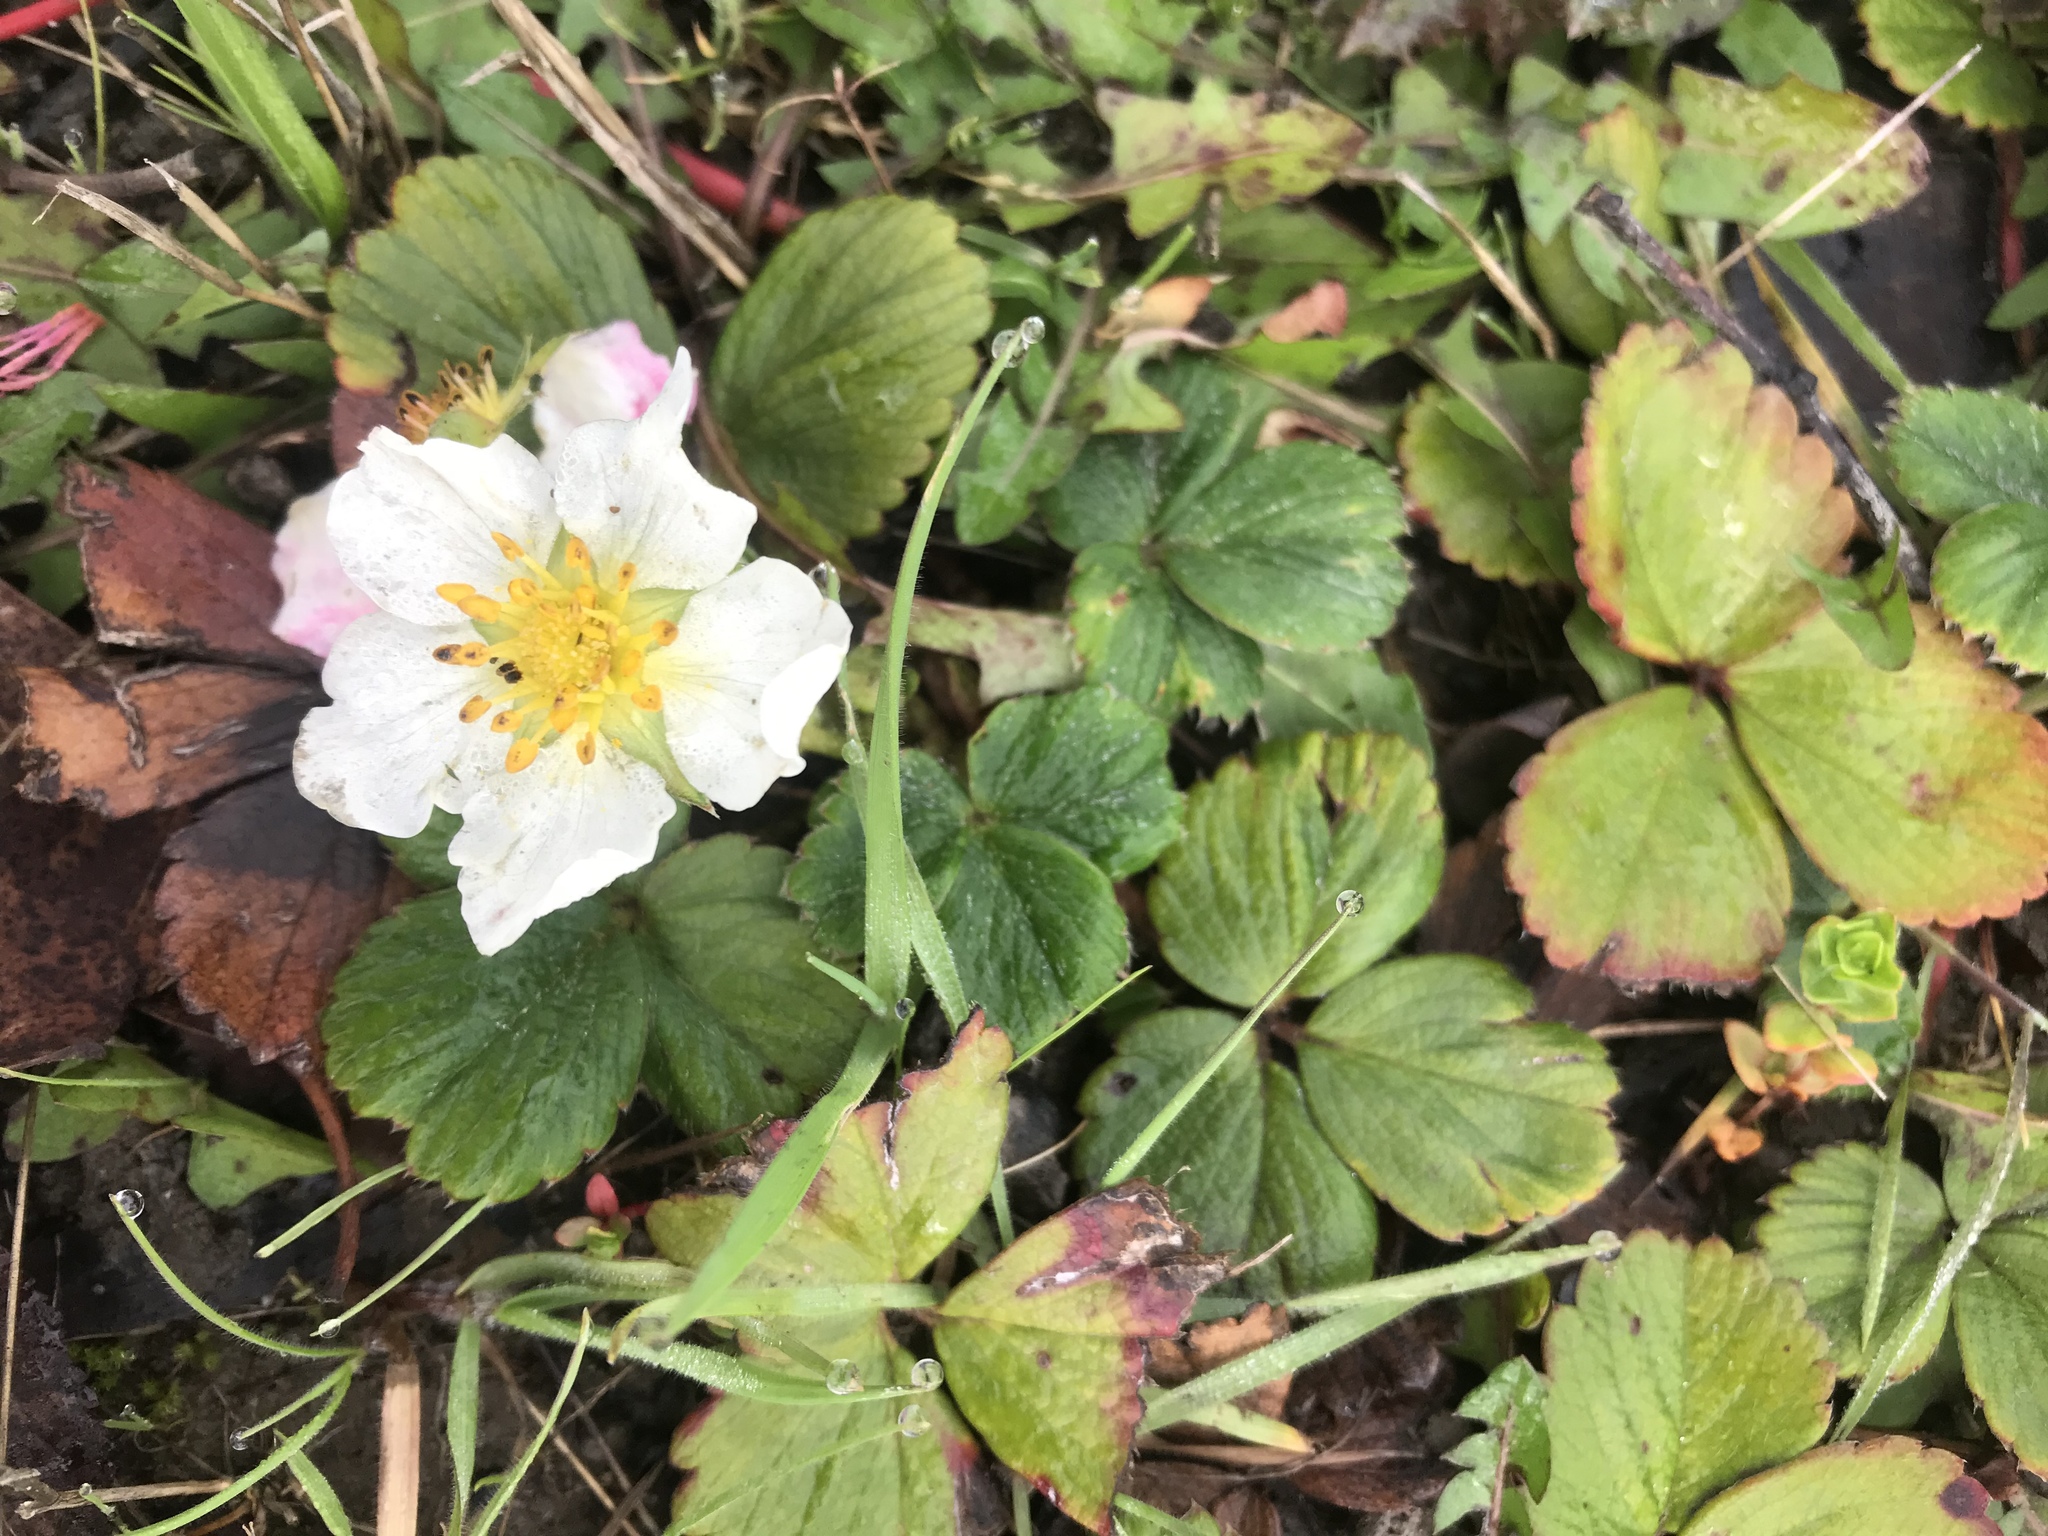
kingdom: Plantae
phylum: Tracheophyta
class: Magnoliopsida
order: Rosales
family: Rosaceae
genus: Fragaria
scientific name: Fragaria chiloensis
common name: Beach strawberry
